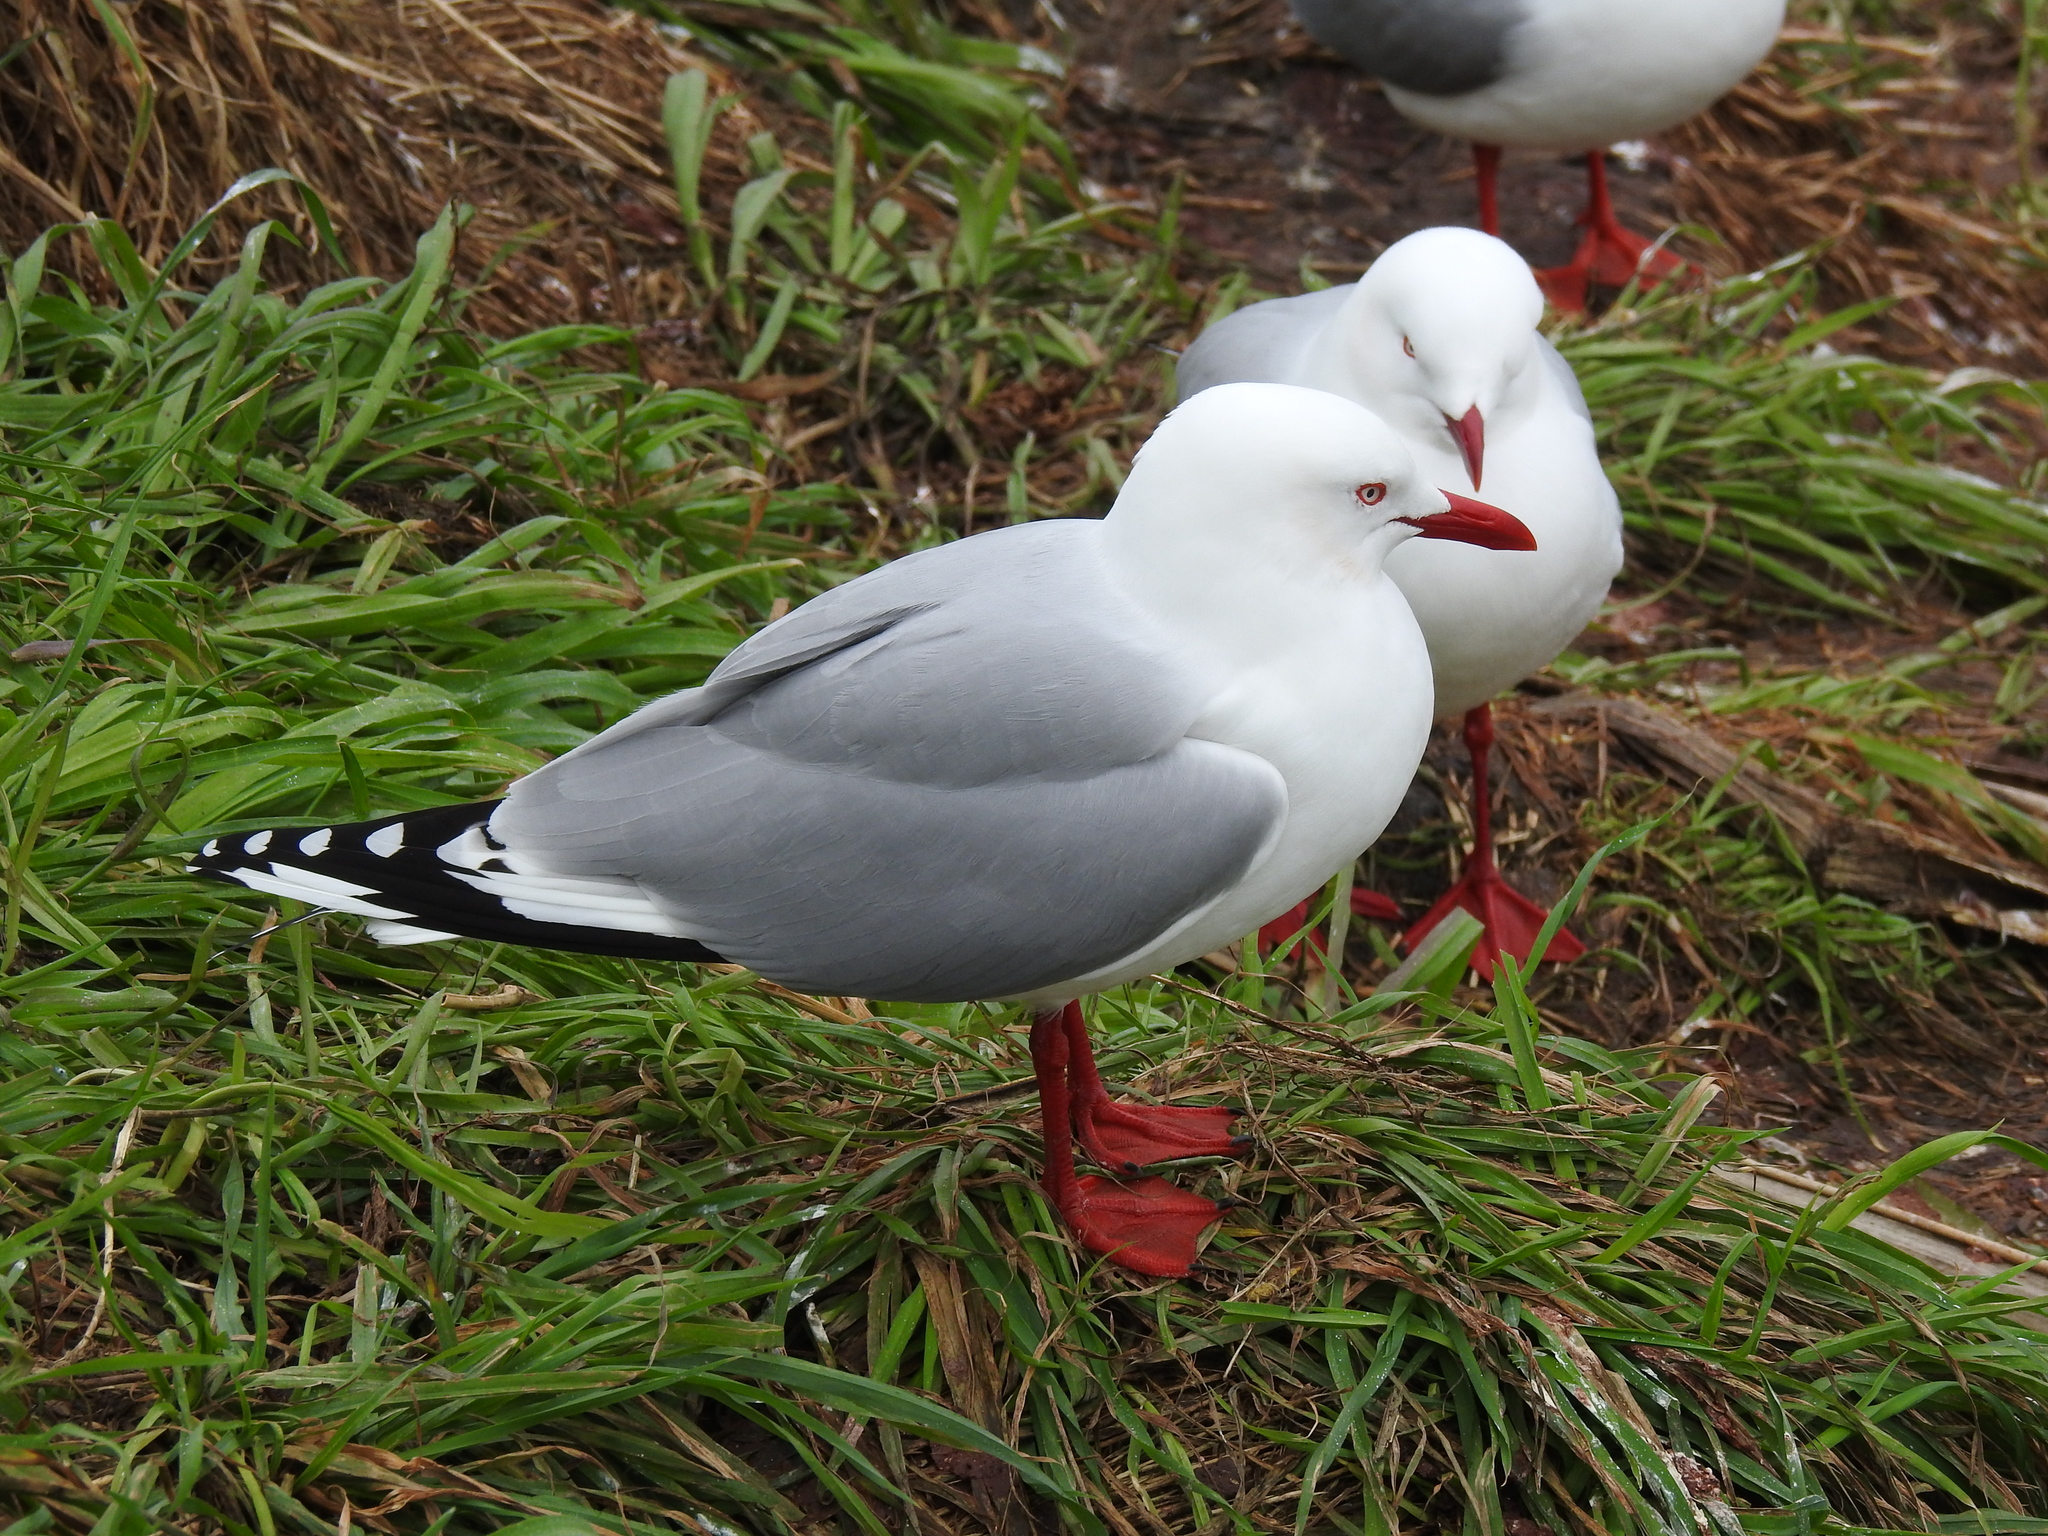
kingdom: Animalia
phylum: Chordata
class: Aves
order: Charadriiformes
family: Laridae
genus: Chroicocephalus
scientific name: Chroicocephalus novaehollandiae
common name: Silver gull
